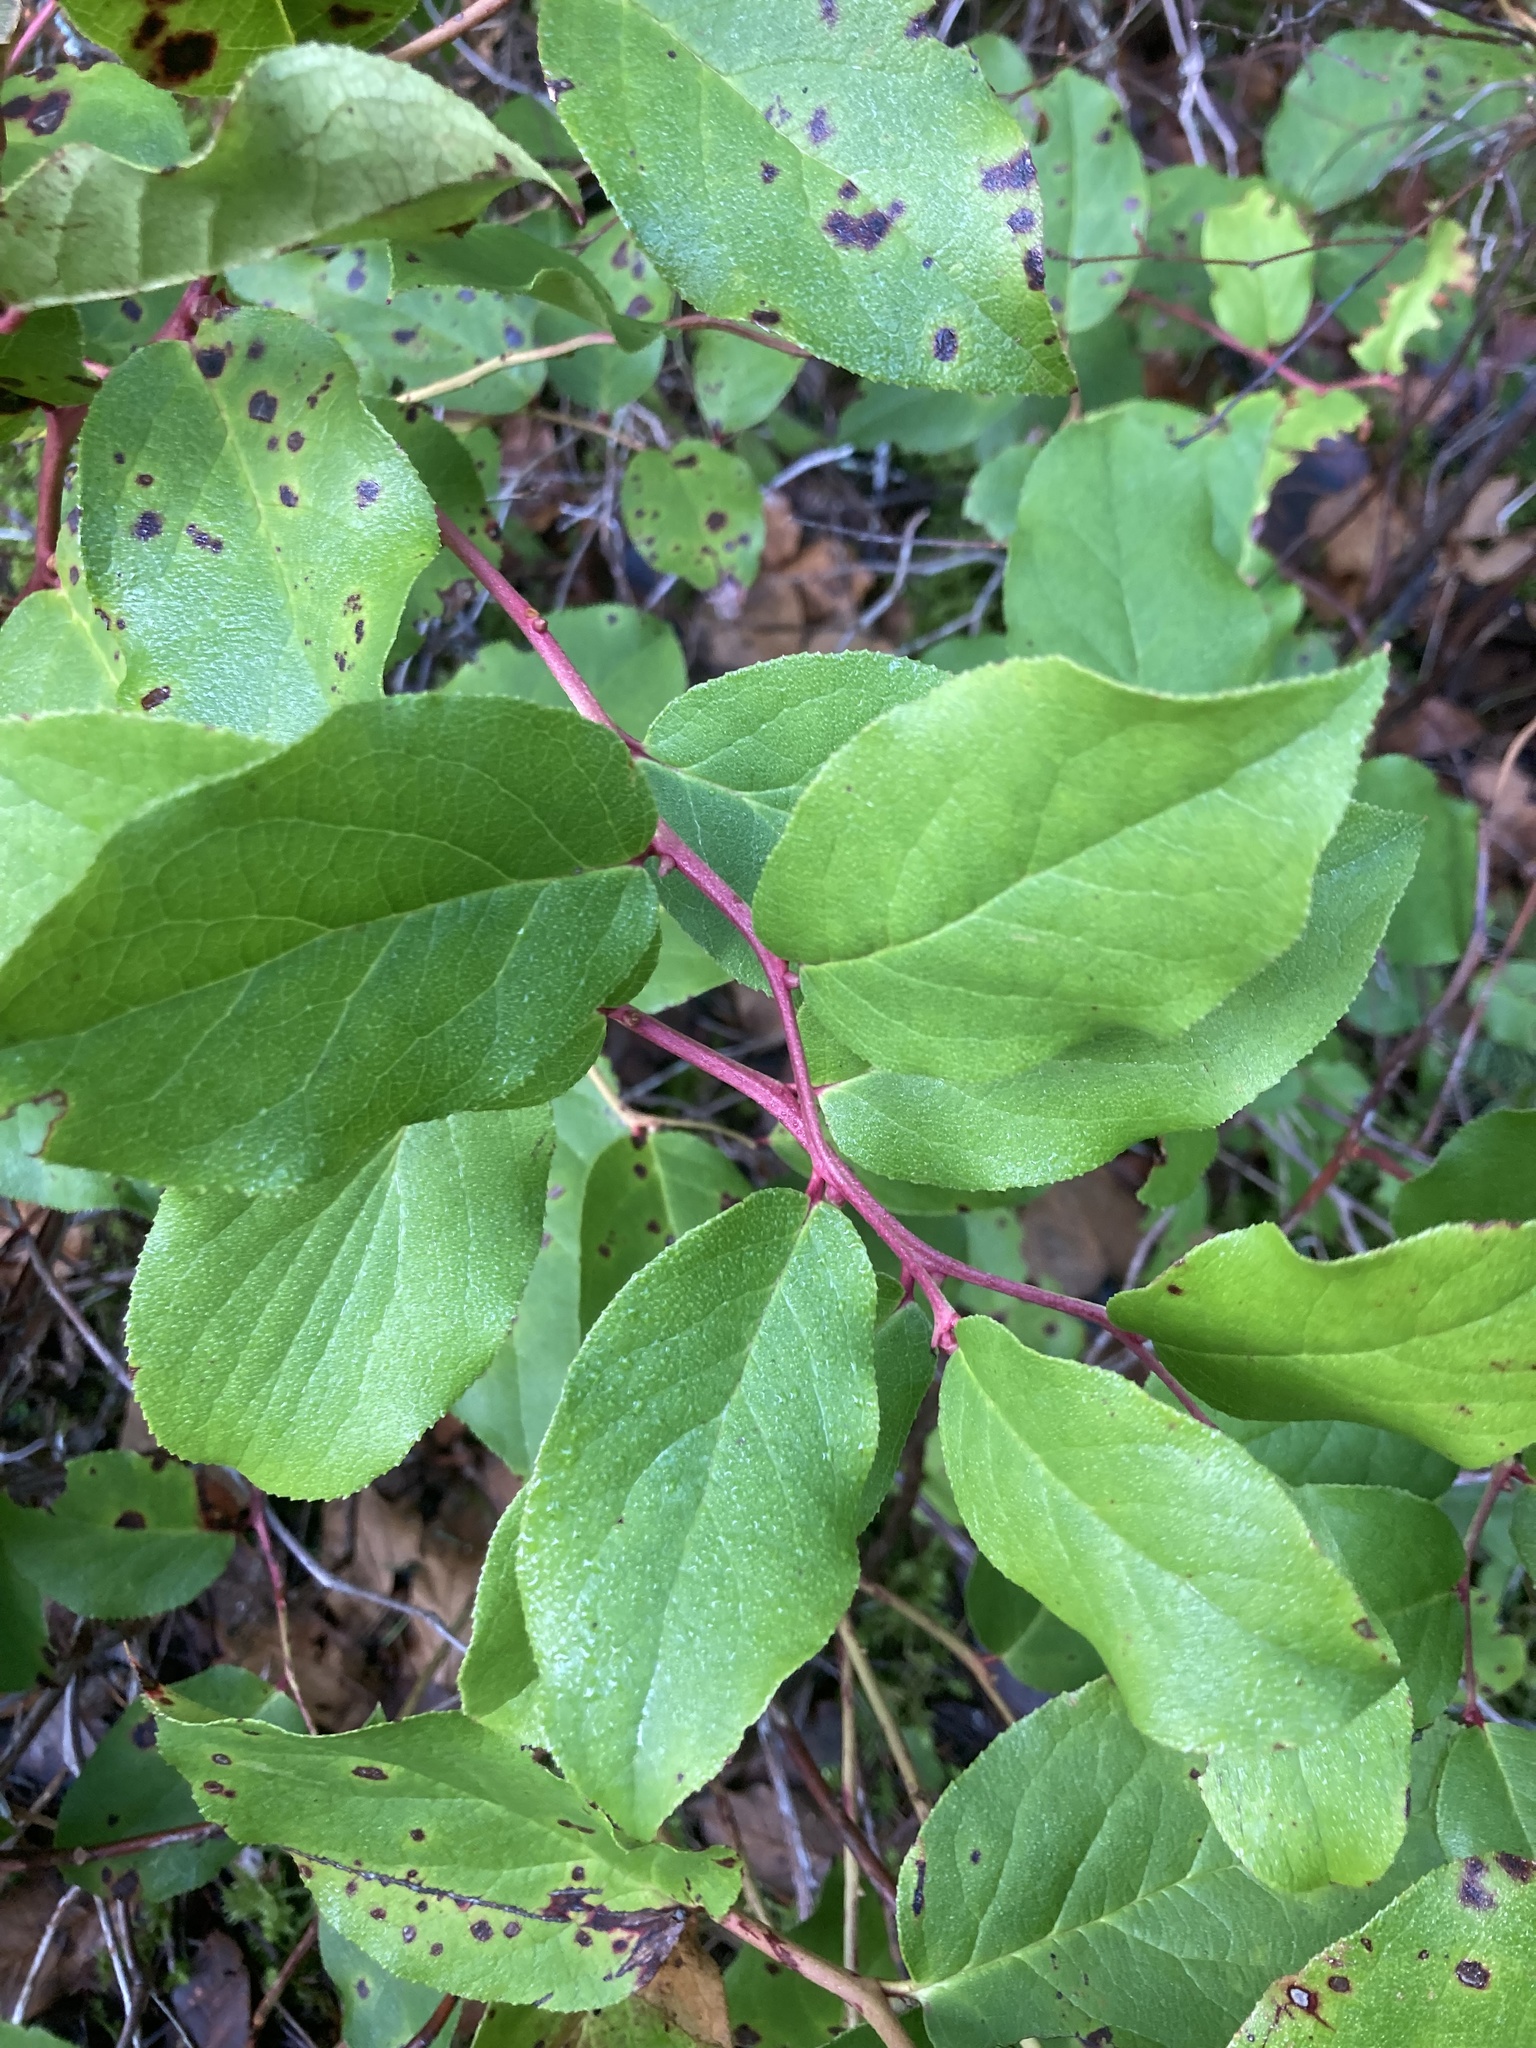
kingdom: Plantae
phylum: Tracheophyta
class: Magnoliopsida
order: Ericales
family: Ericaceae
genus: Gaultheria
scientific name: Gaultheria shallon
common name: Shallon
